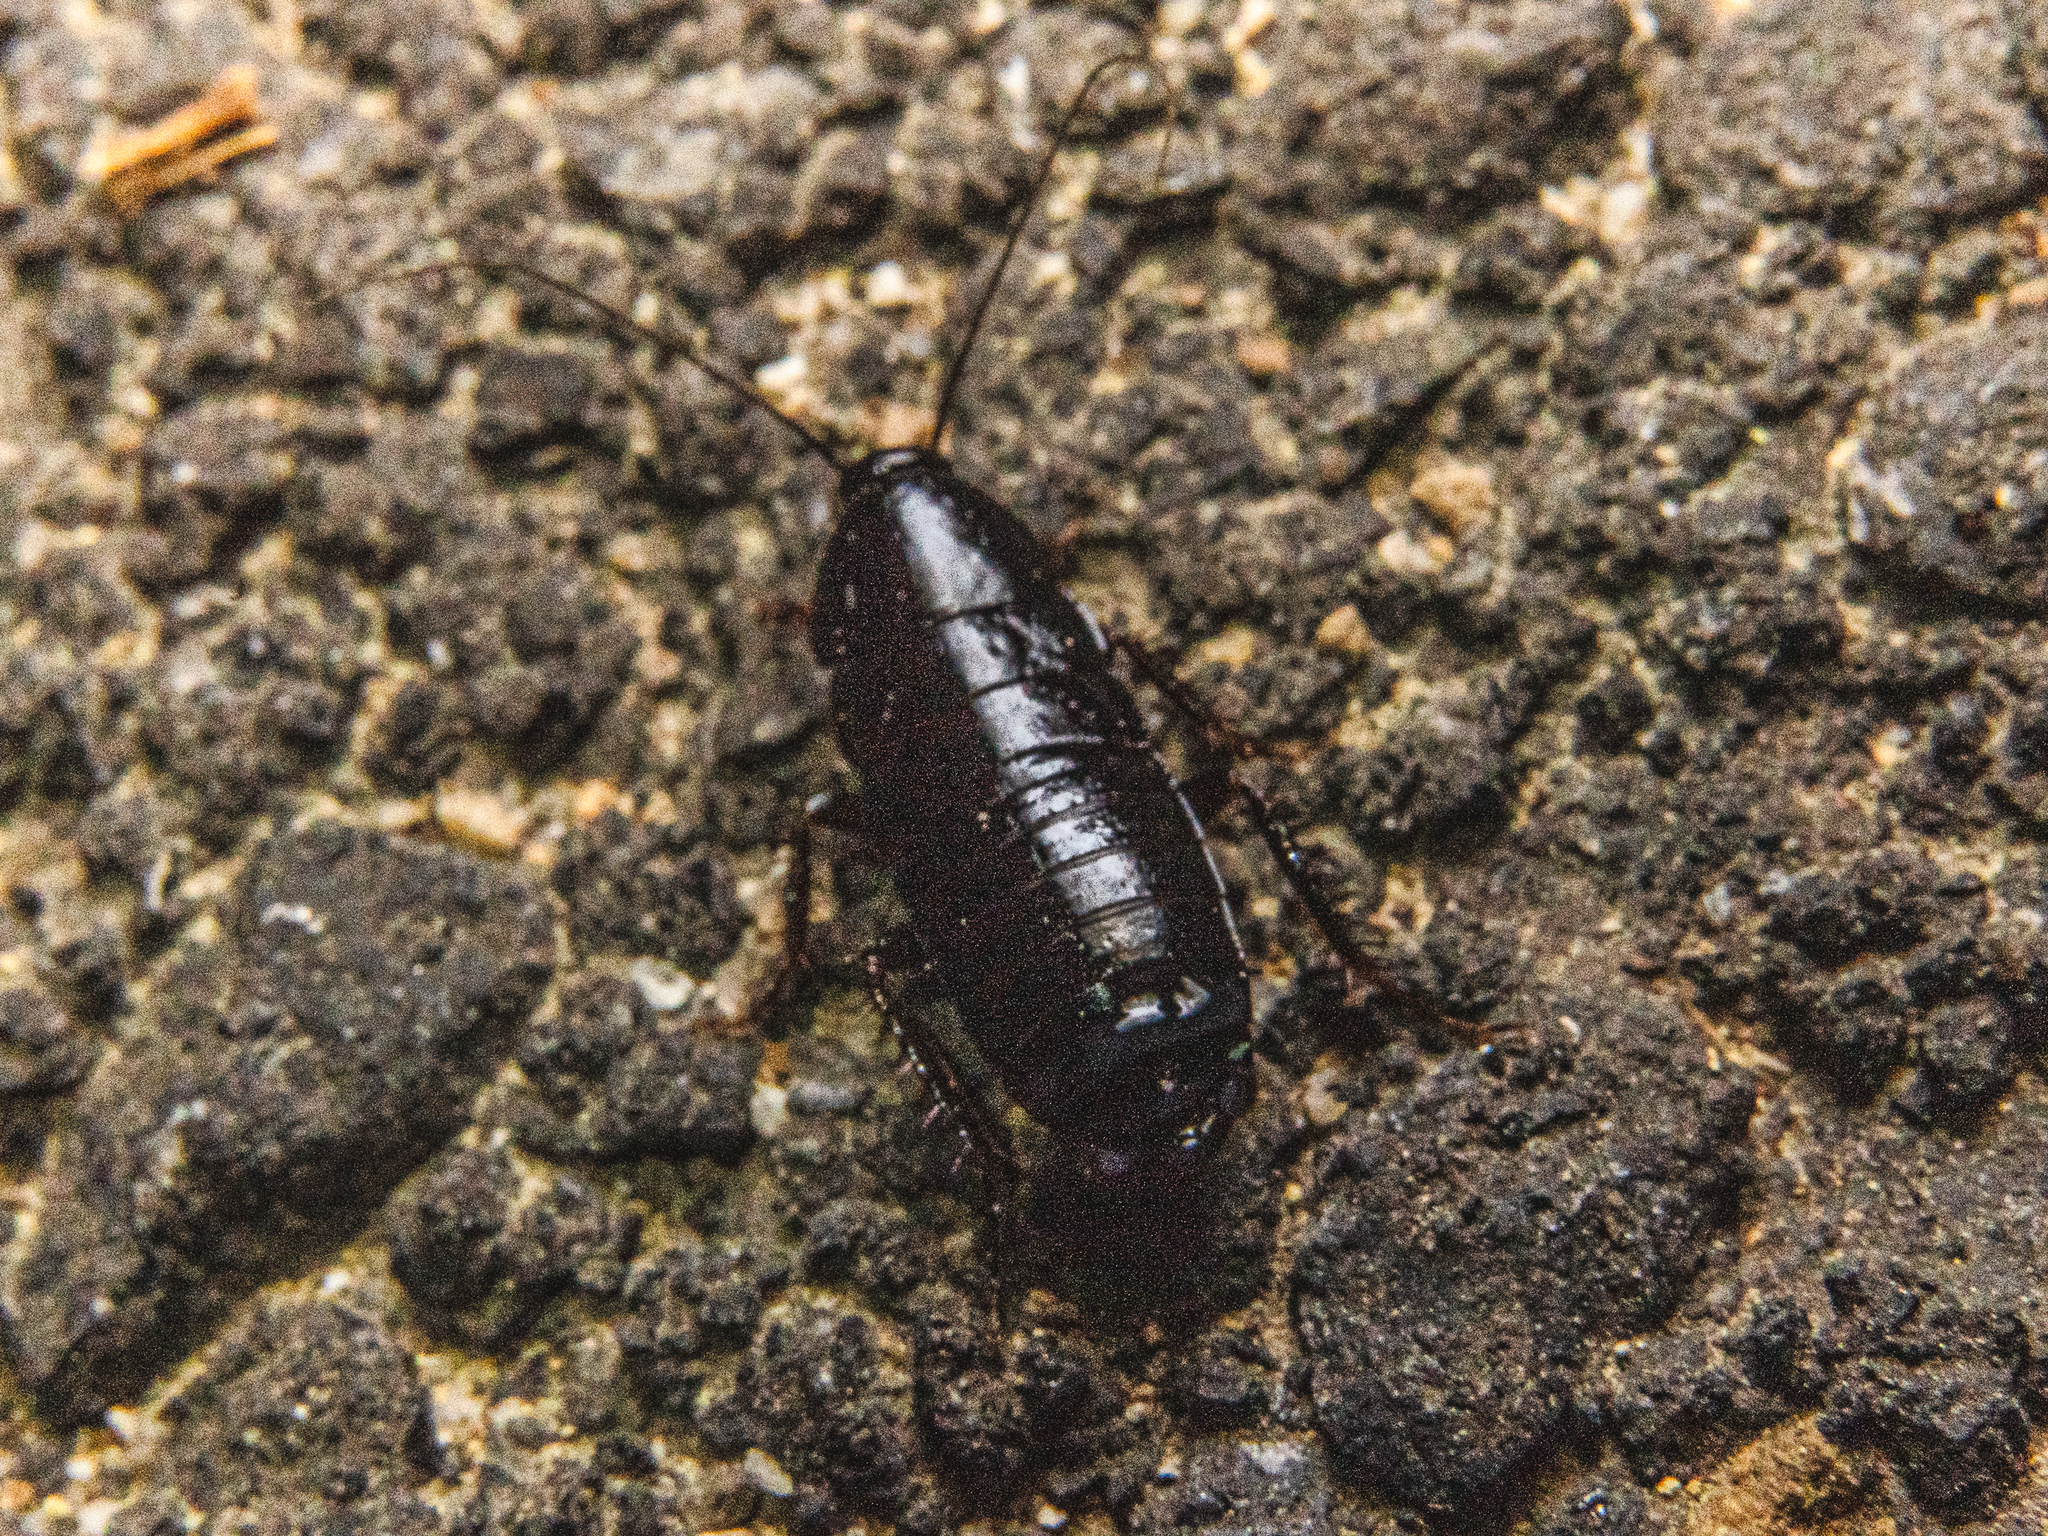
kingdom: Animalia
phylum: Arthropoda
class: Insecta
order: Blattodea
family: Ectobiidae
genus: Parcoblatta
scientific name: Parcoblatta americana
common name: Western wood cockroach
